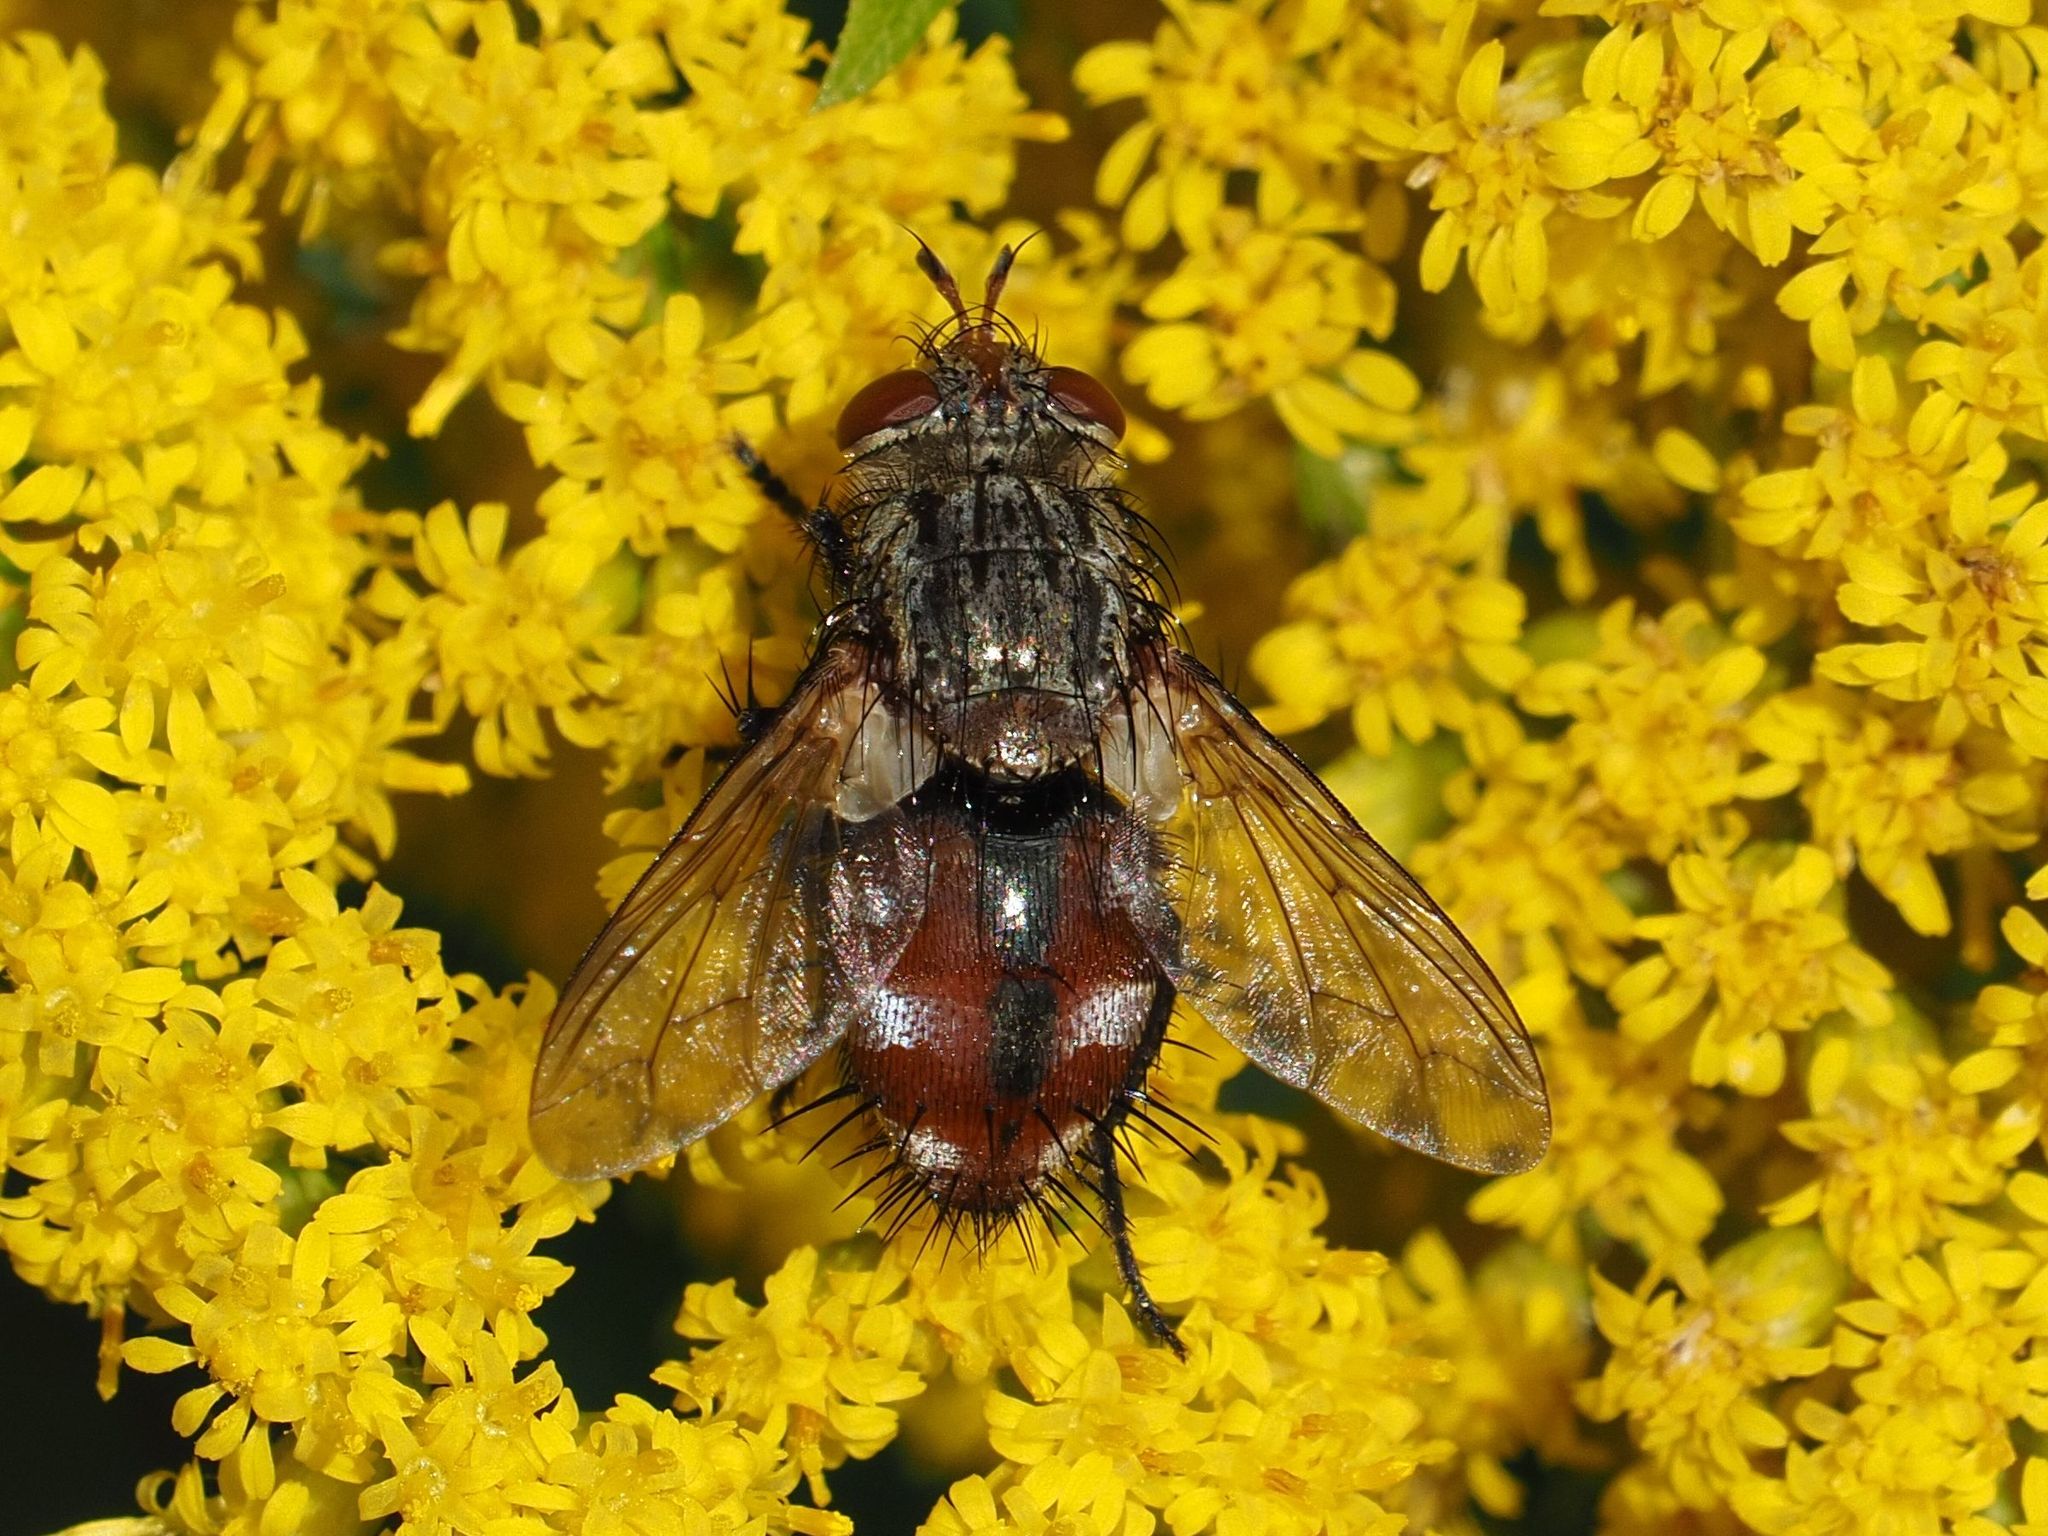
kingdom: Animalia
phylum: Arthropoda
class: Insecta
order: Diptera
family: Tachinidae
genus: Peleteria
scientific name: Peleteria javana
